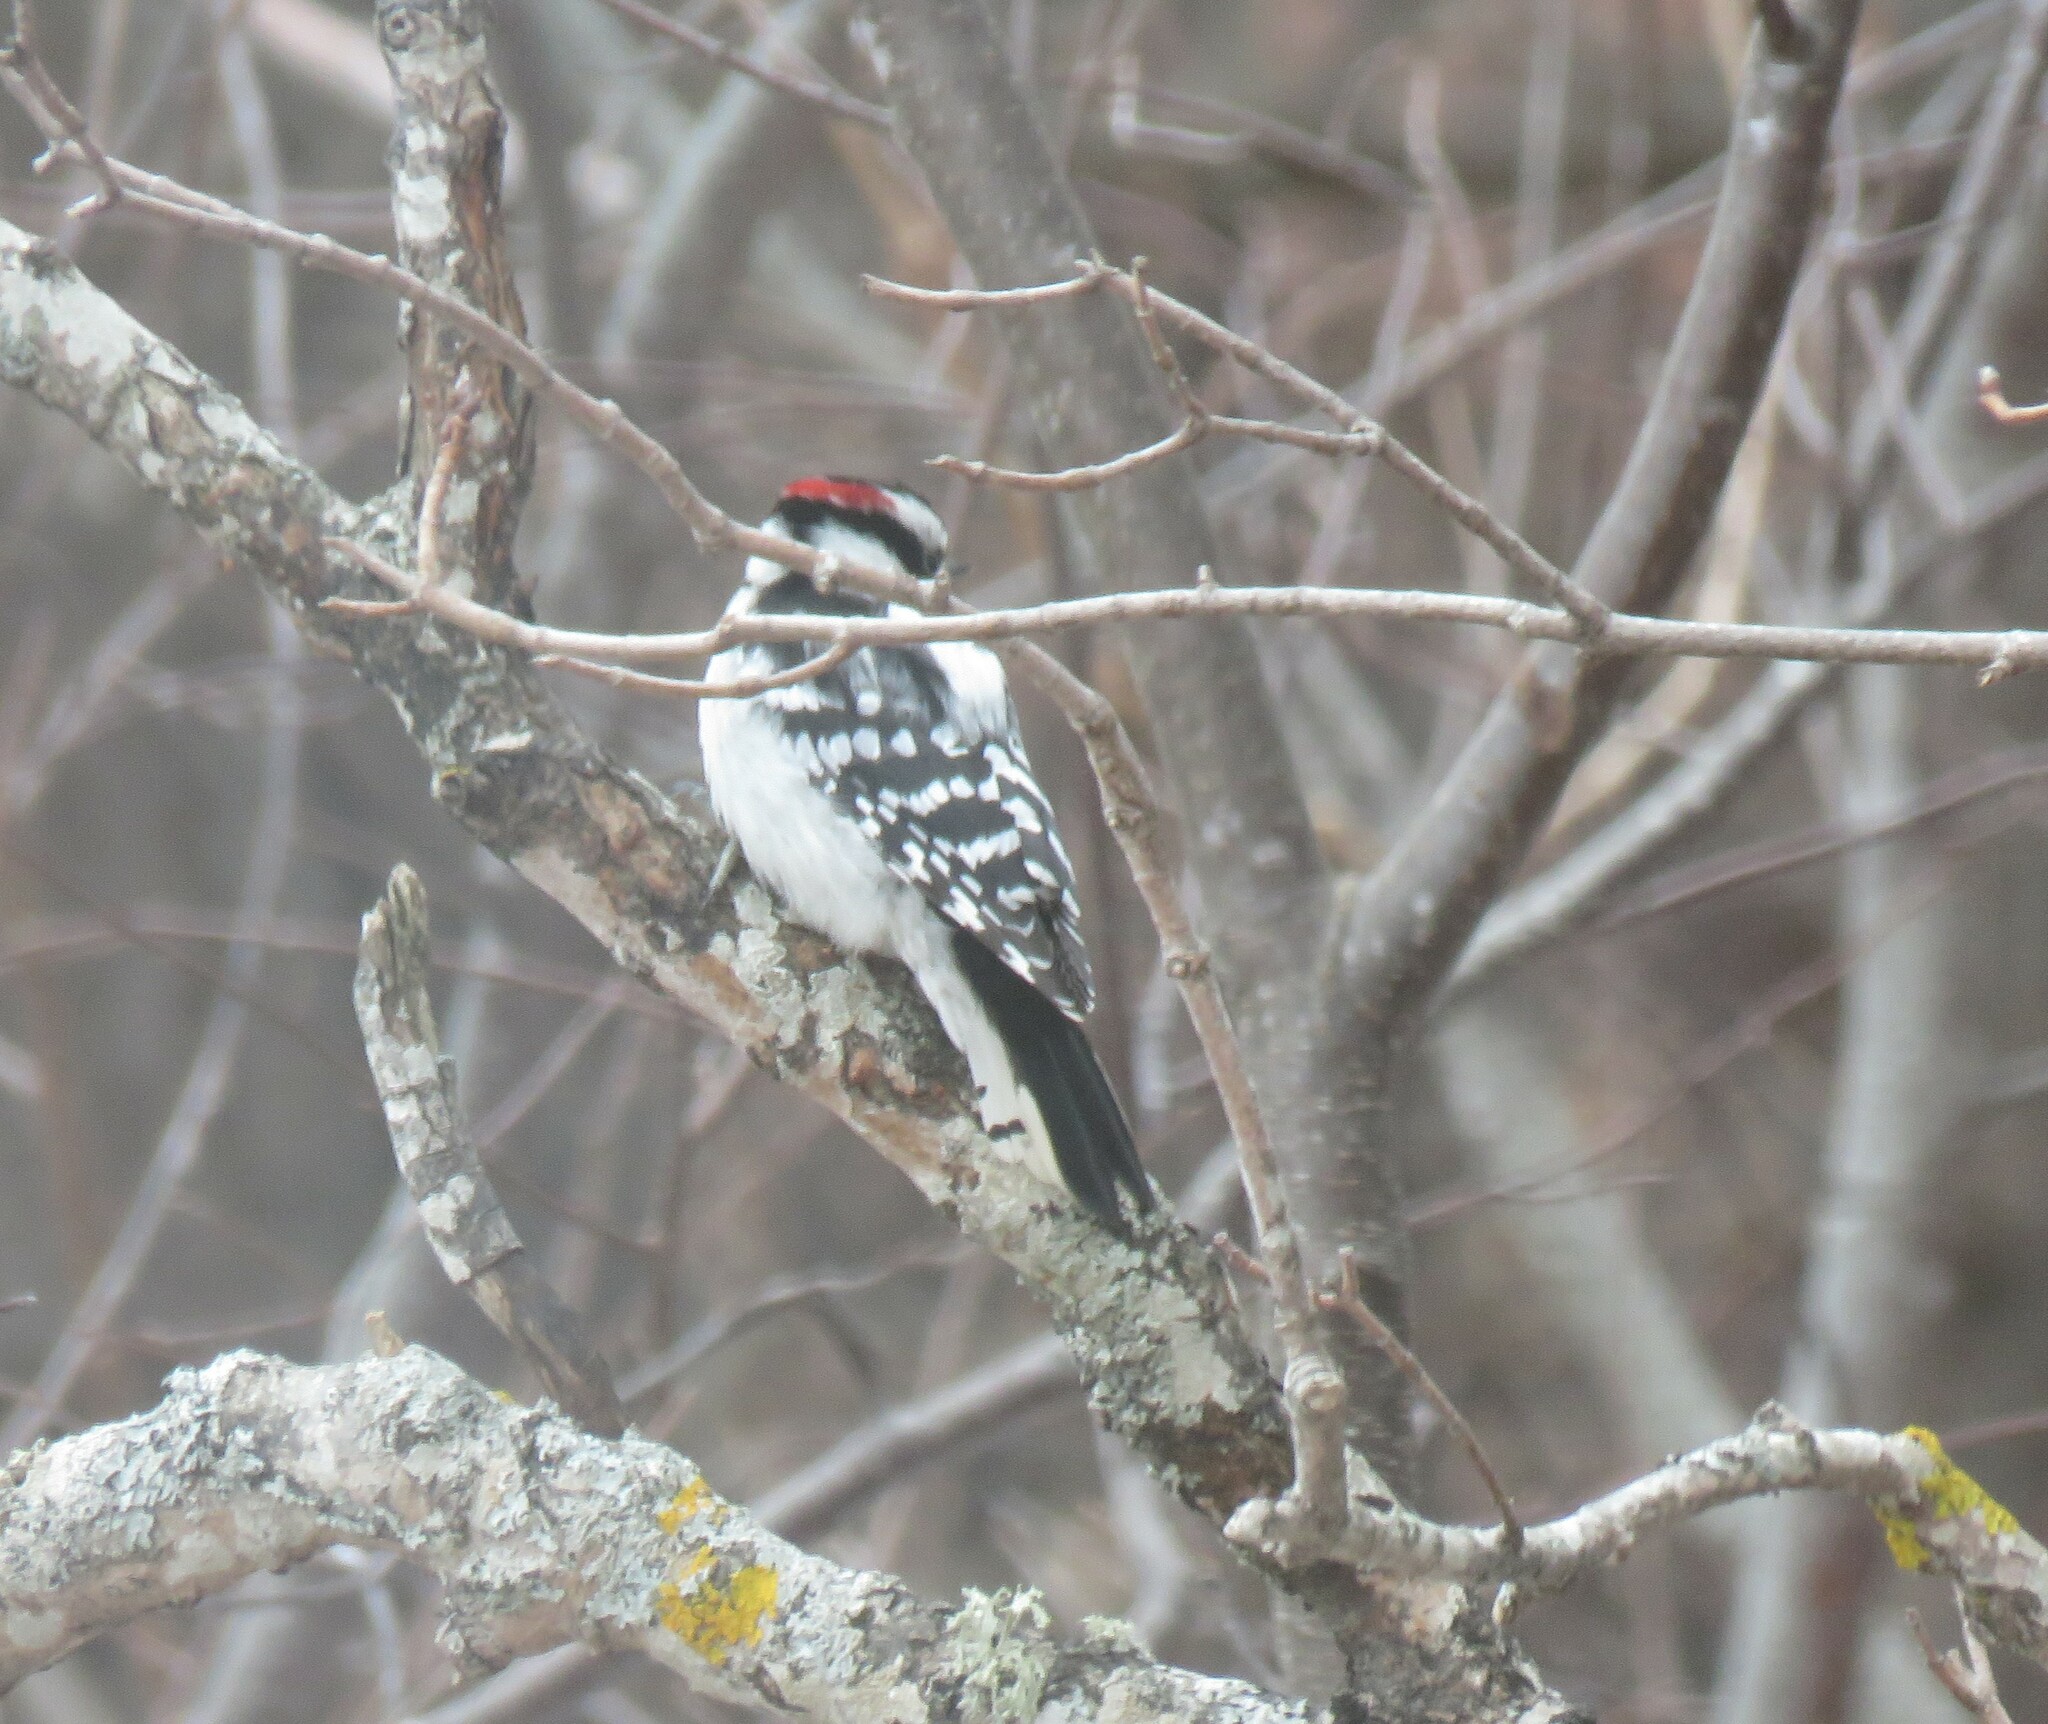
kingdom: Animalia
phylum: Chordata
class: Aves
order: Piciformes
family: Picidae
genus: Dryobates
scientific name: Dryobates pubescens
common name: Downy woodpecker
